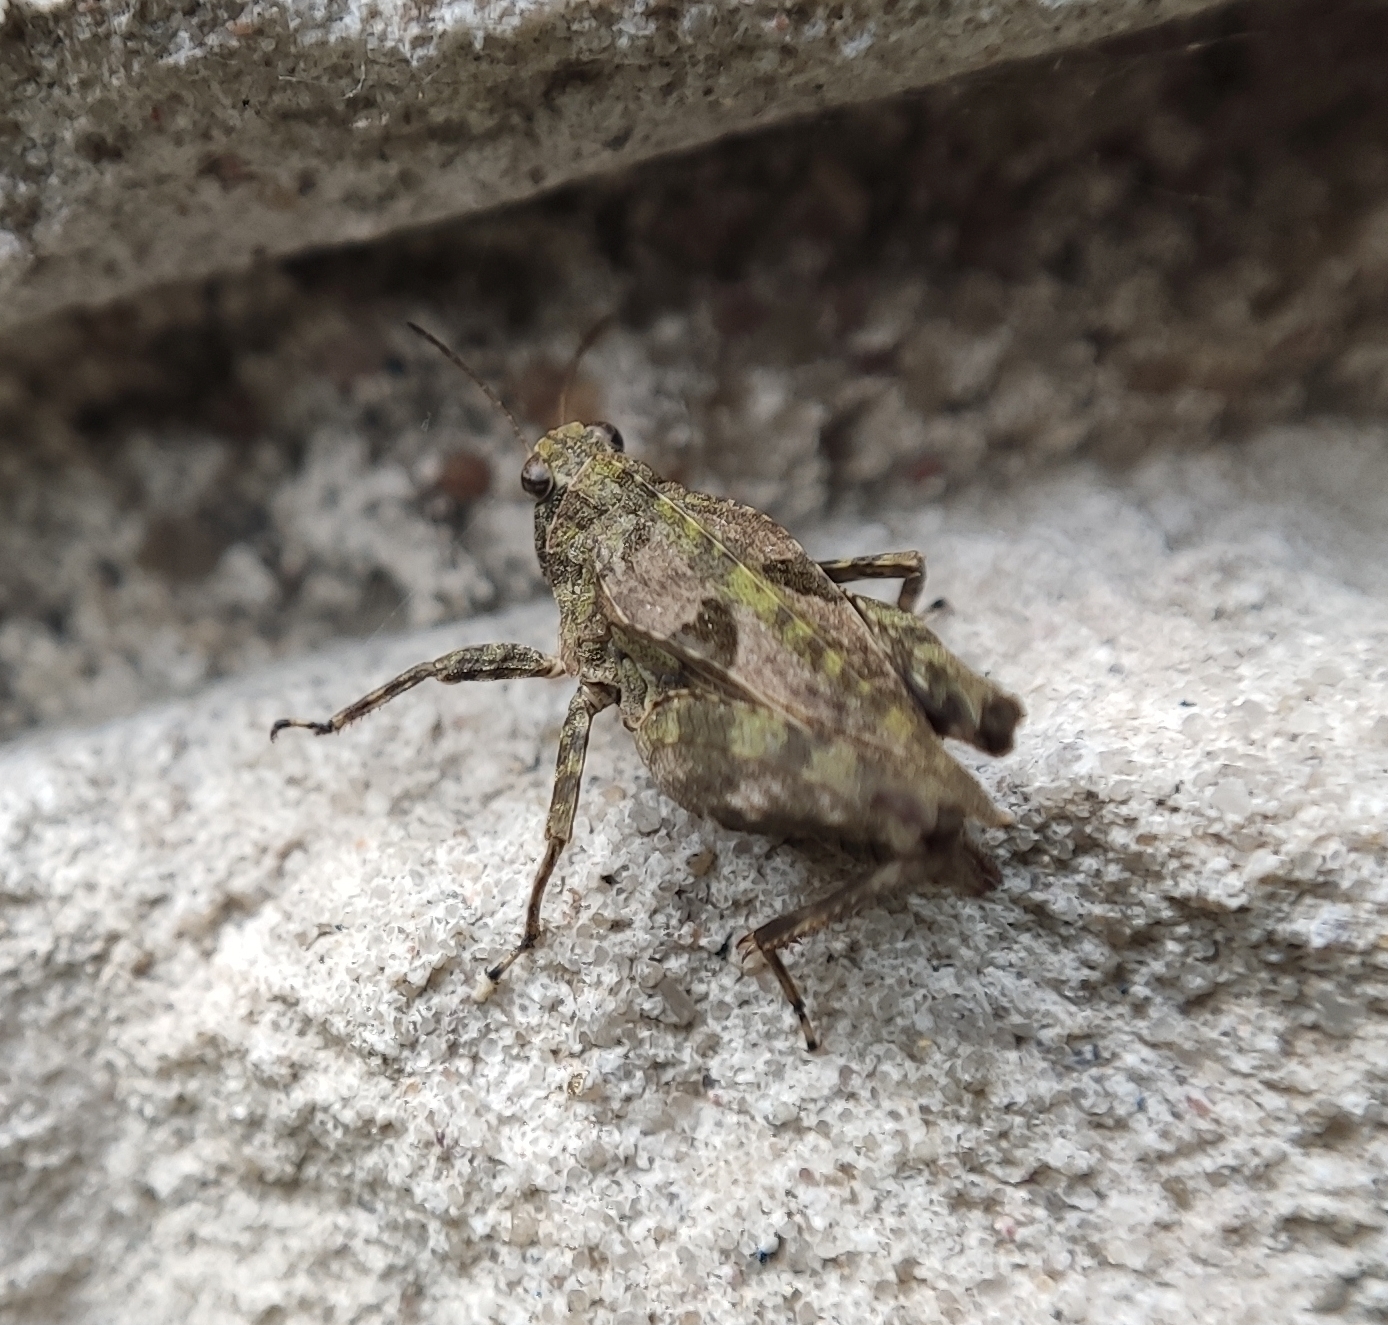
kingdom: Animalia
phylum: Arthropoda
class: Insecta
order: Orthoptera
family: Tetrigidae
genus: Tetrix
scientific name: Tetrix tenuicornis
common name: Long-horned groundhopper
